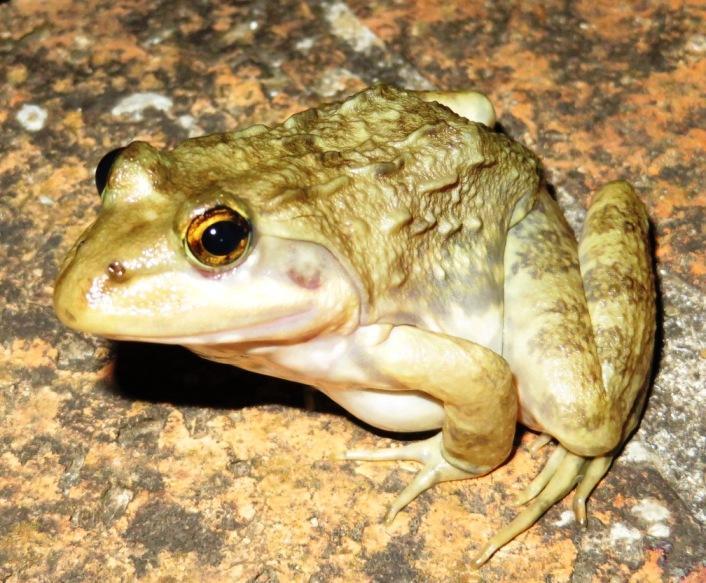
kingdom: Animalia
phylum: Chordata
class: Amphibia
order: Anura
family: Pyxicephalidae
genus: Amietia
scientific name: Amietia fuscigula
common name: Cape rana
